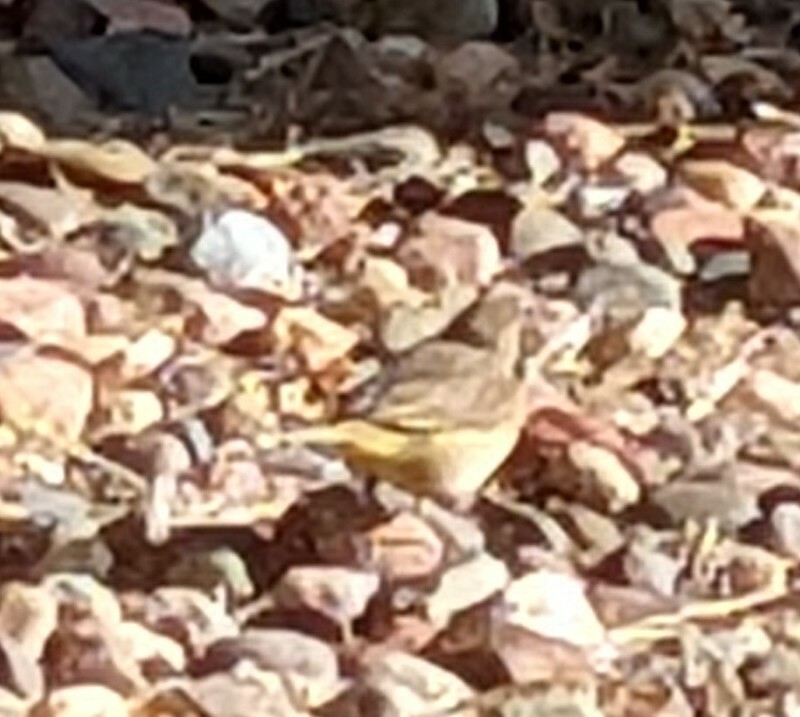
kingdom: Animalia
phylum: Chordata
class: Aves
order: Passeriformes
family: Parulidae
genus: Setophaga
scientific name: Setophaga palmarum
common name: Palm warbler
